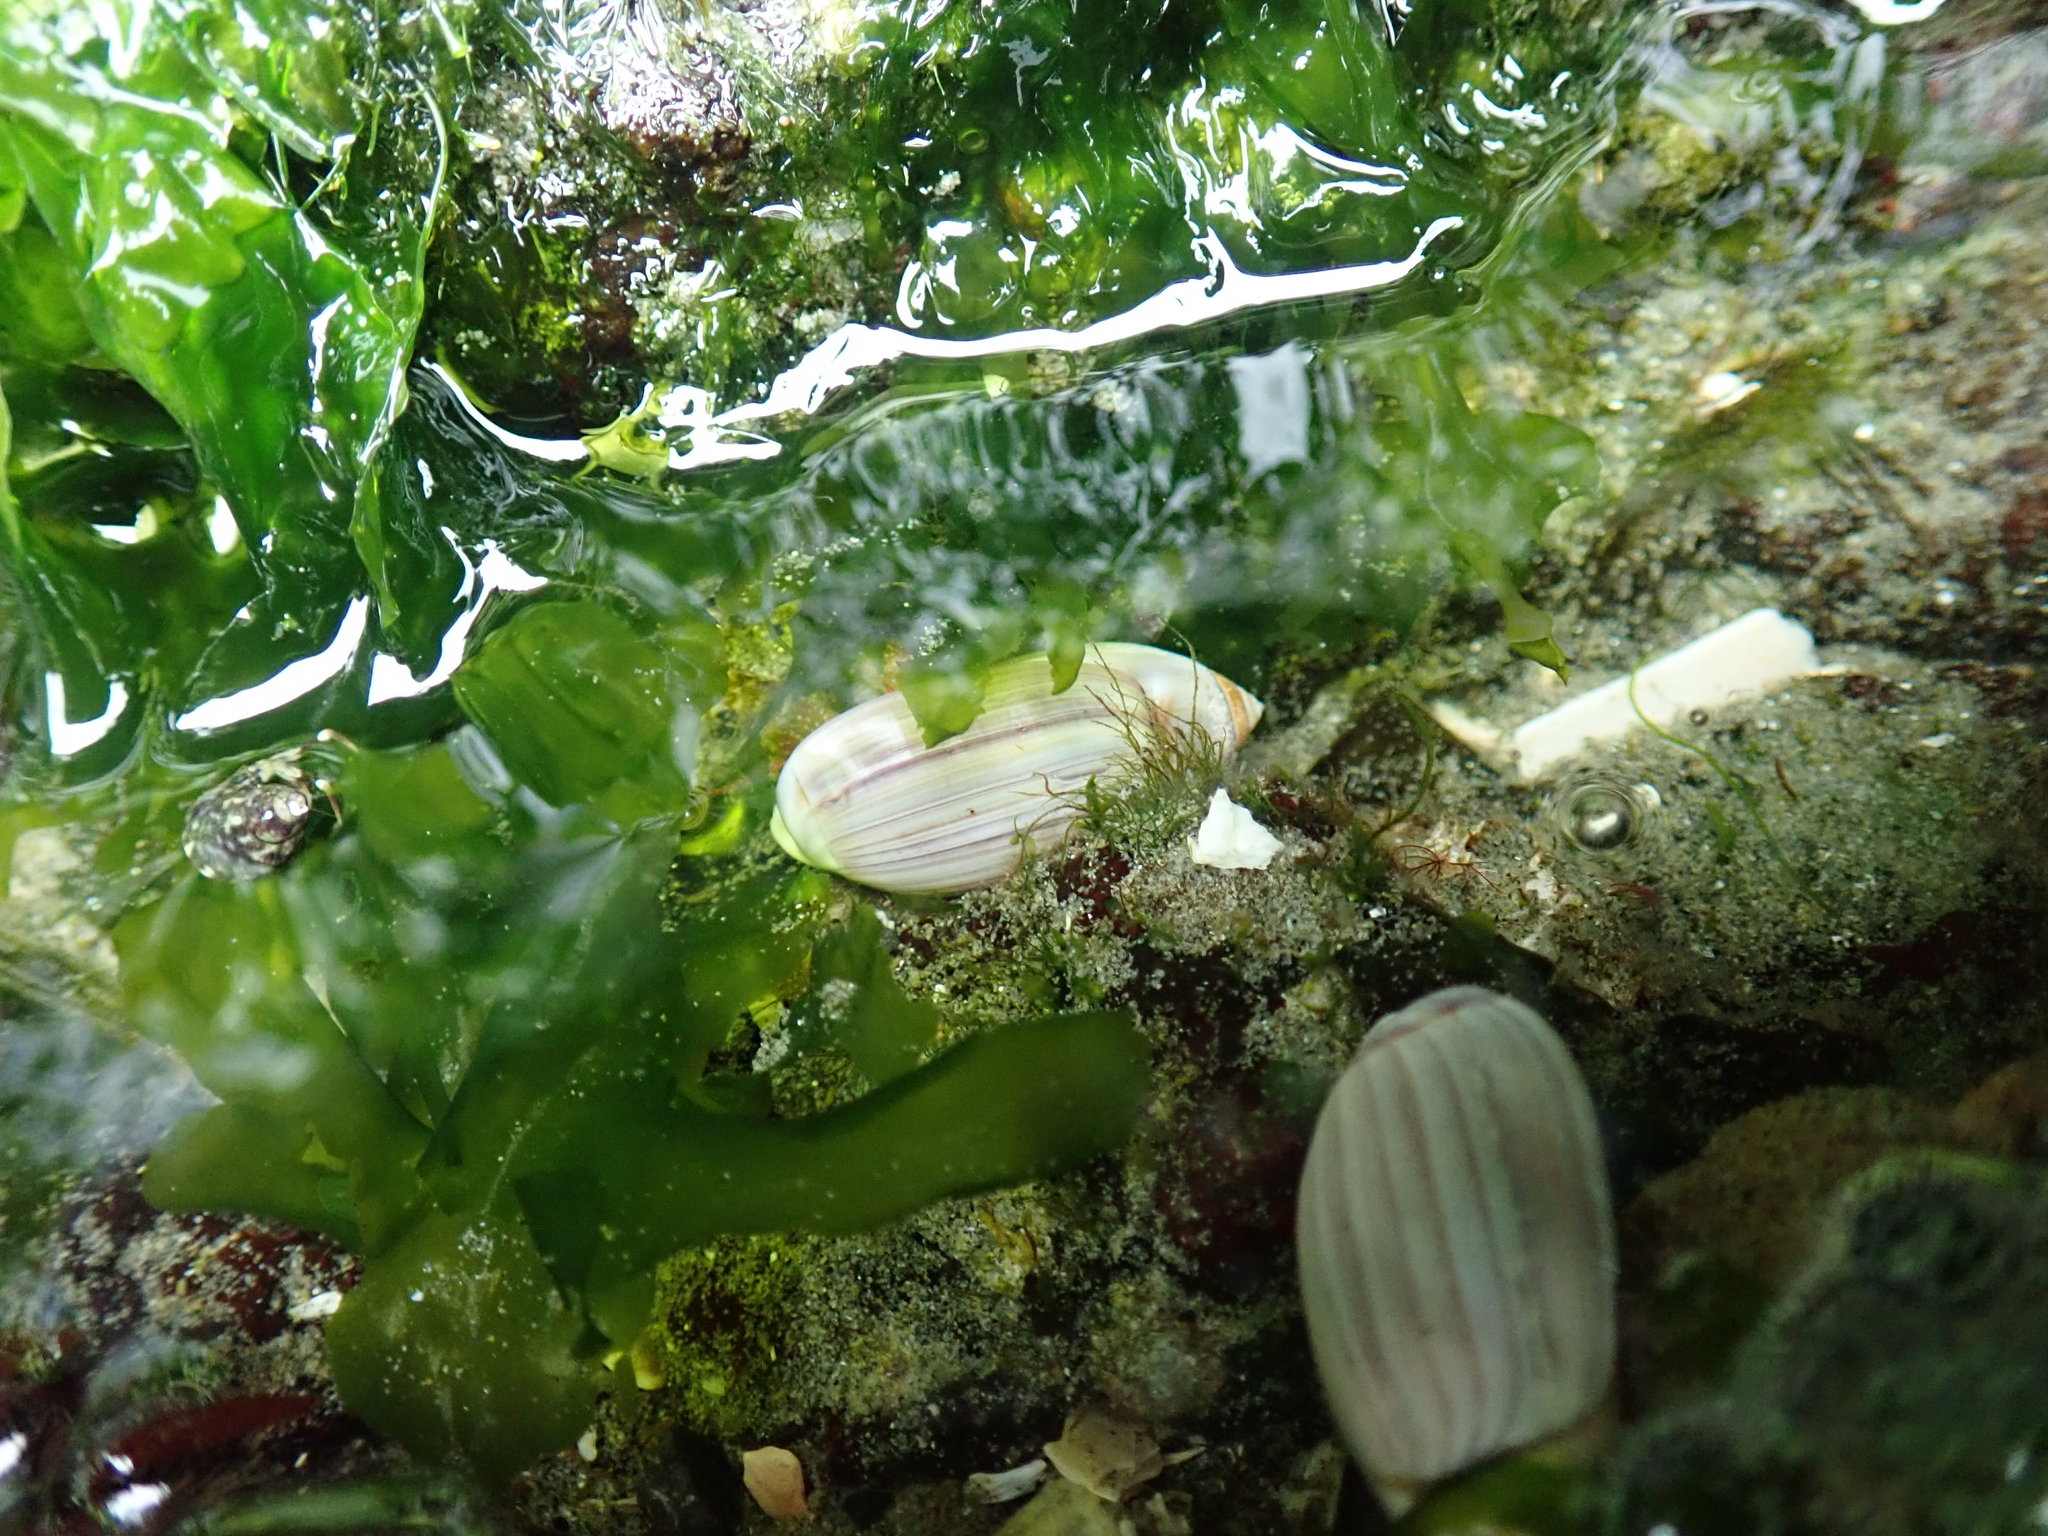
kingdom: Animalia
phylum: Mollusca
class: Gastropoda
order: Neogastropoda
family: Olividae
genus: Callianax
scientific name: Callianax biplicata
